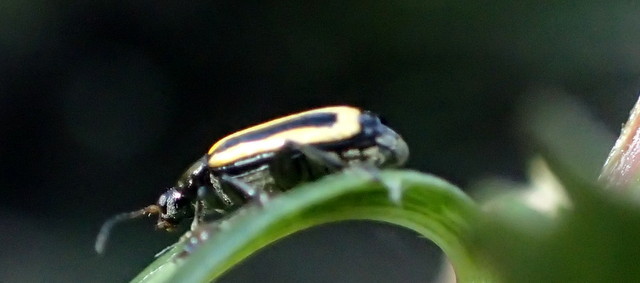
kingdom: Animalia
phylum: Arthropoda
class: Insecta
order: Coleoptera
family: Chrysomelidae
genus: Agasicles
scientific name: Agasicles hygrophila
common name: Alligatorweed flea beetle
